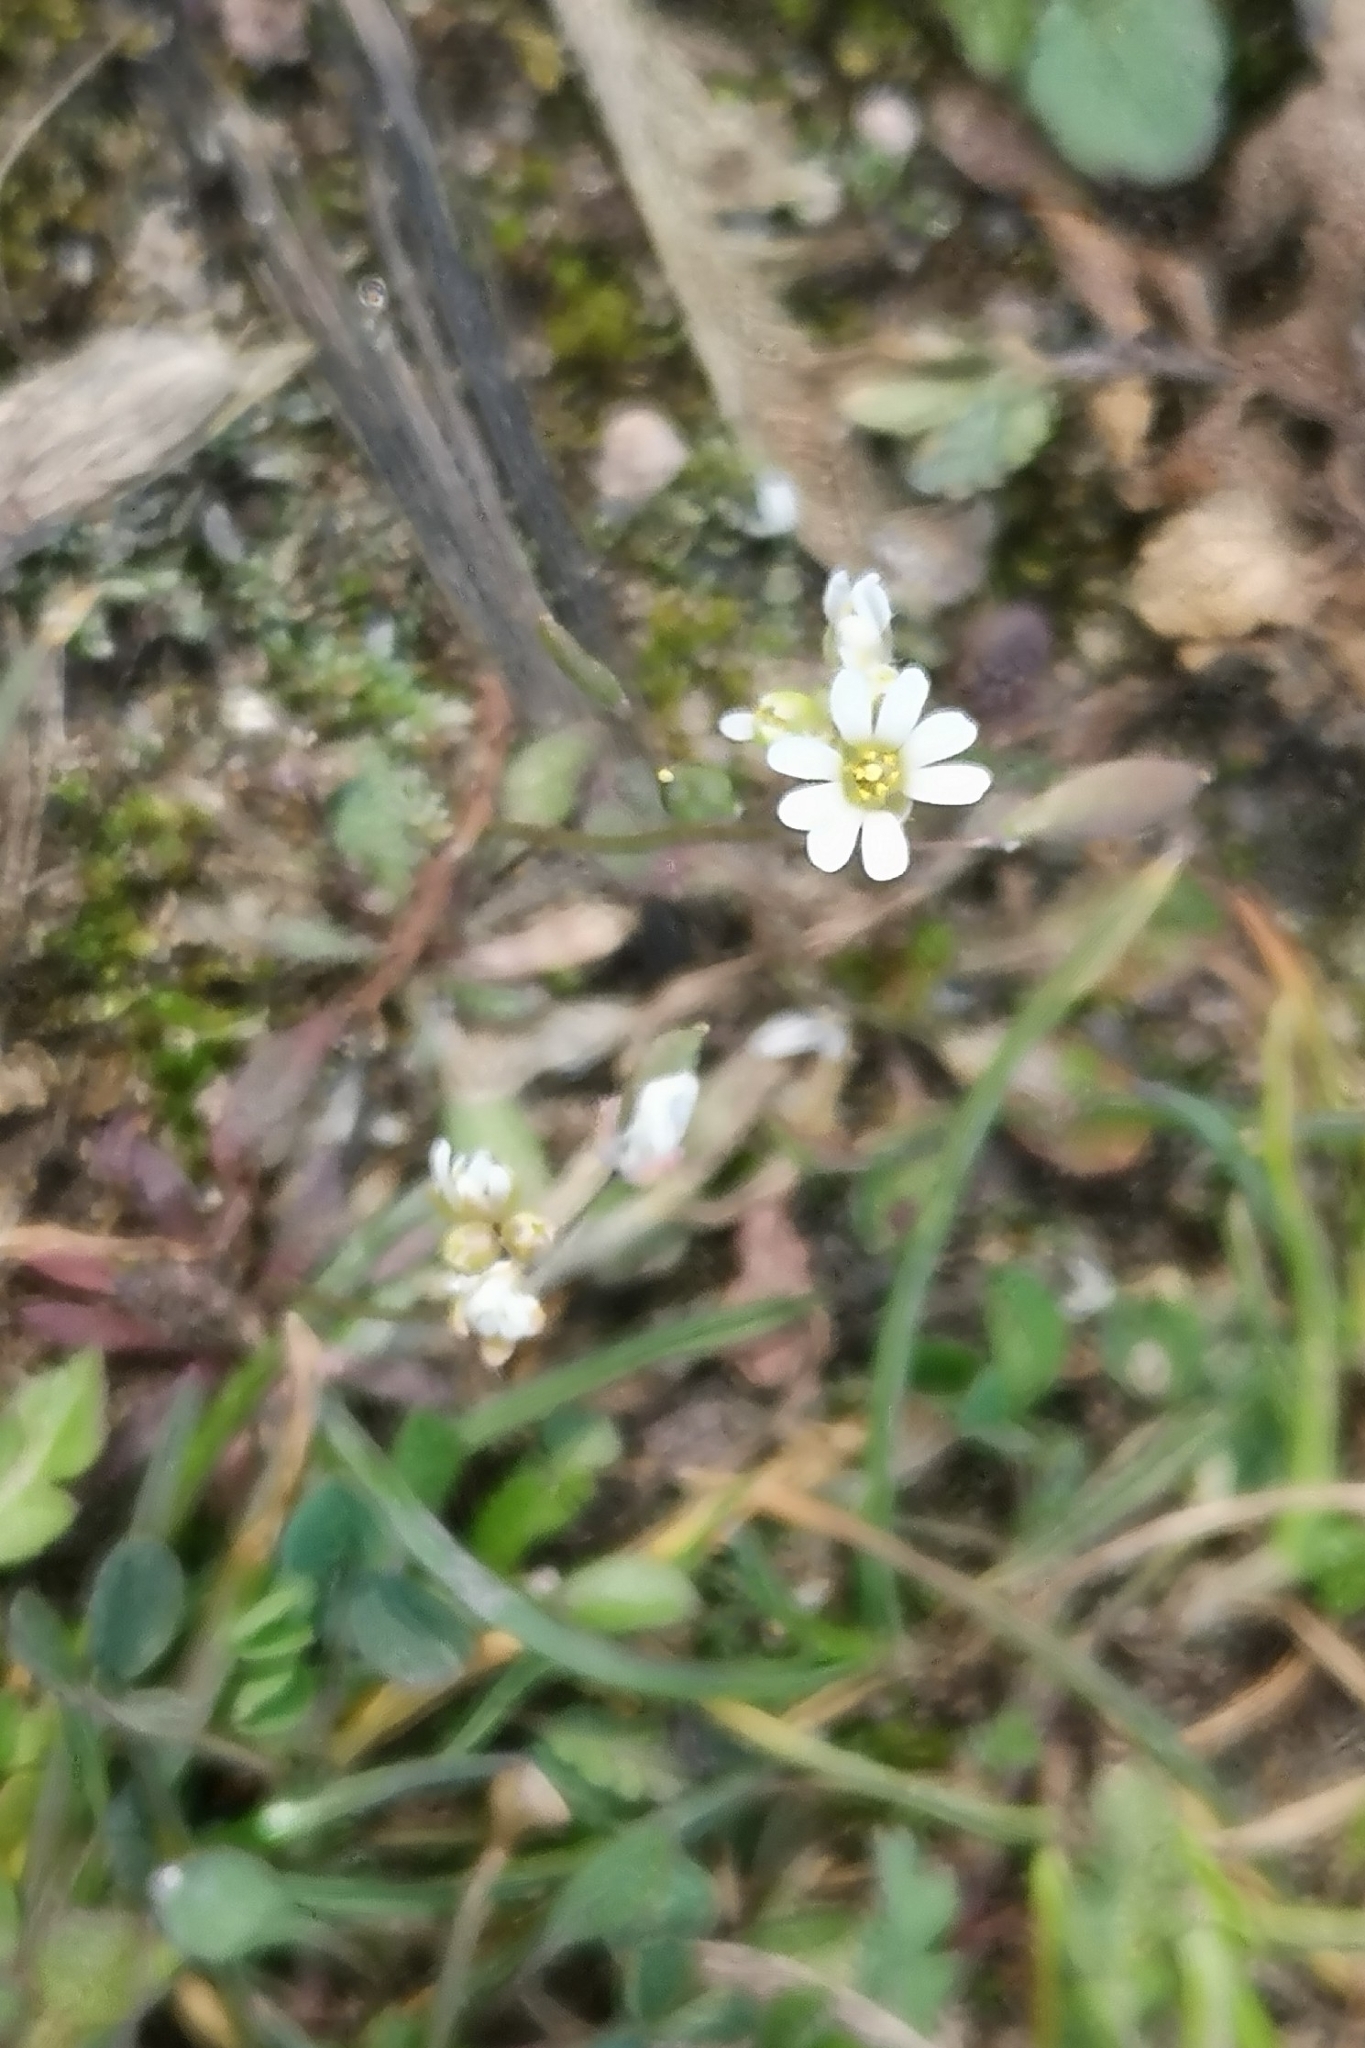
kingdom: Plantae
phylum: Tracheophyta
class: Magnoliopsida
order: Brassicales
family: Brassicaceae
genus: Draba
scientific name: Draba verna
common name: Spring draba
